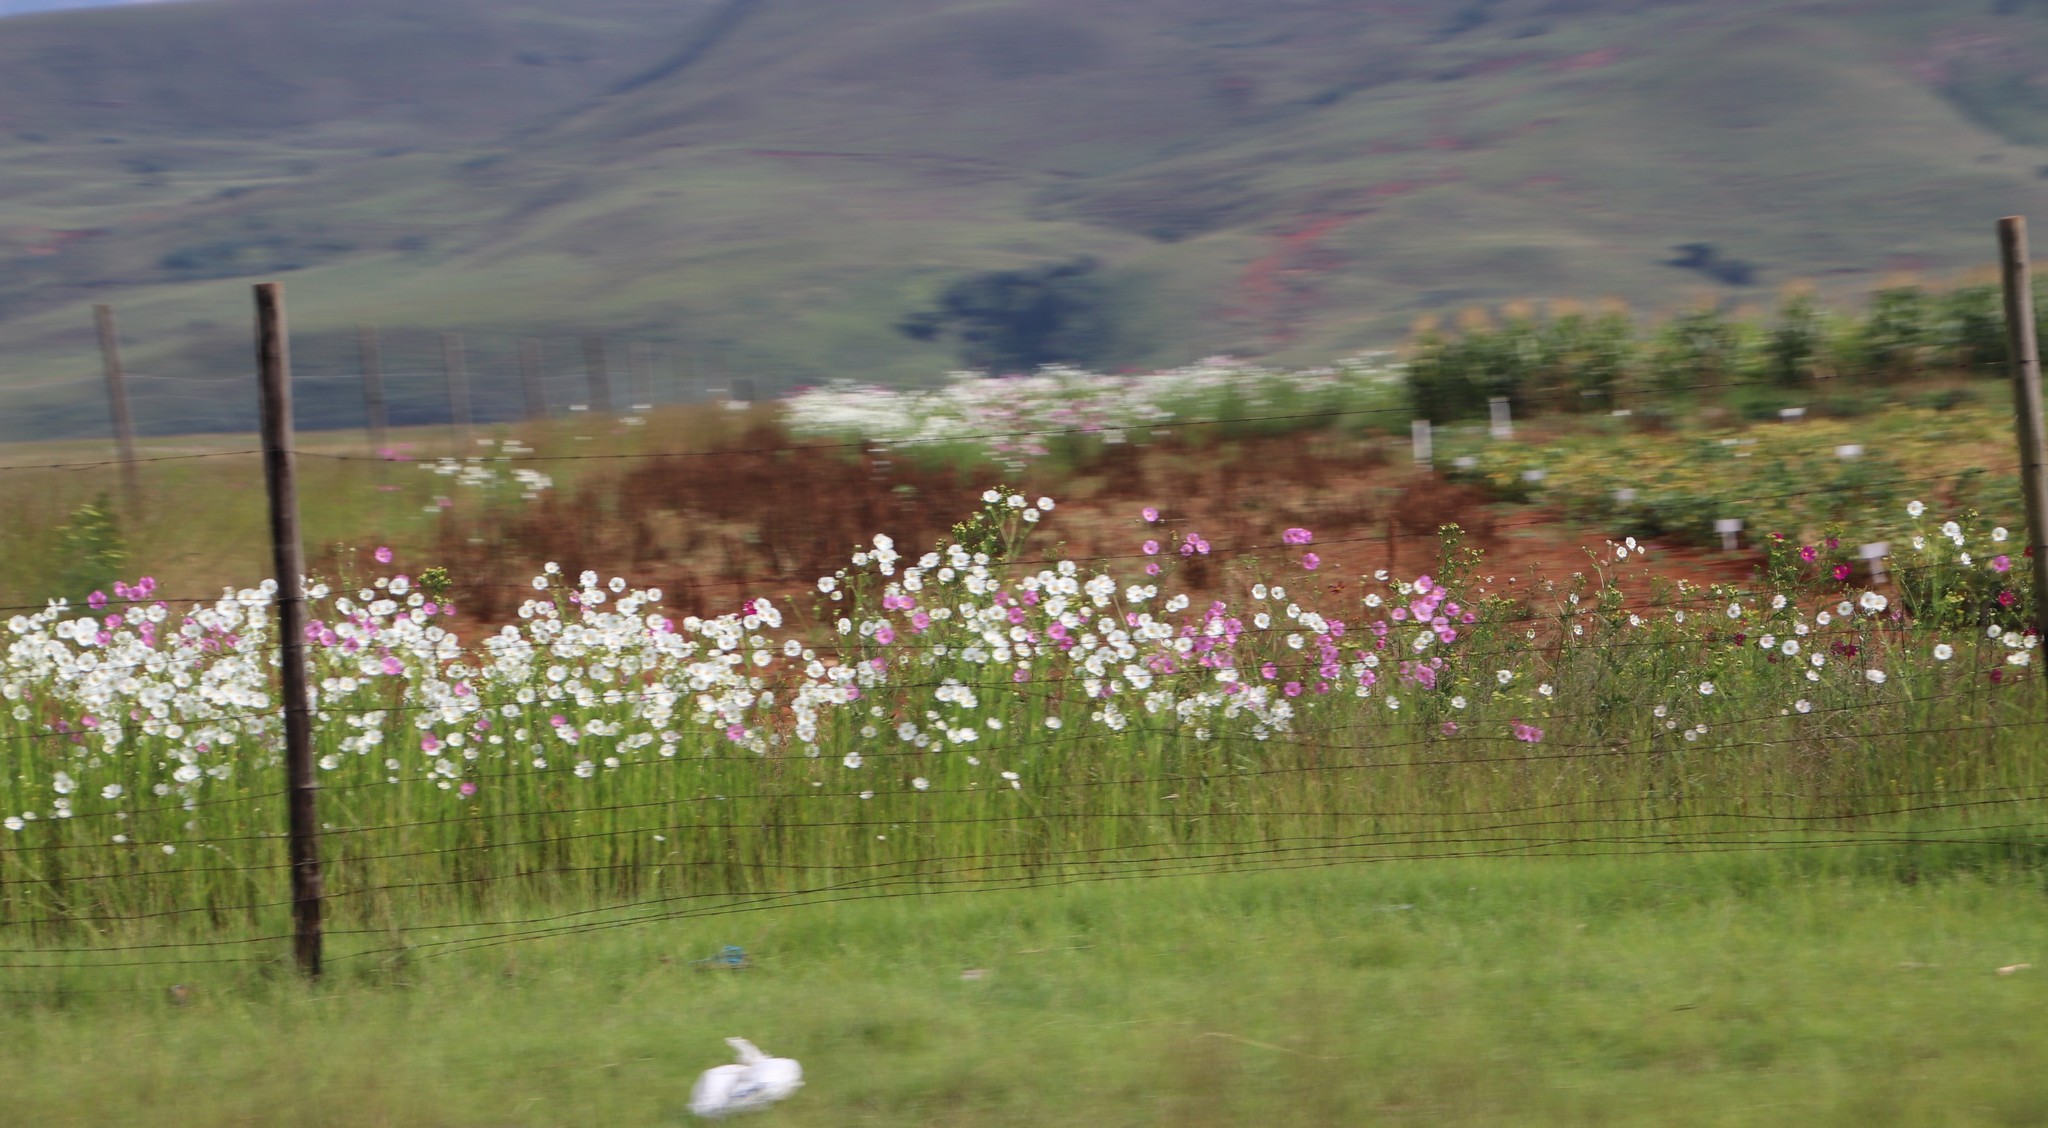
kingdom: Plantae
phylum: Tracheophyta
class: Magnoliopsida
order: Asterales
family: Asteraceae
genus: Cosmos
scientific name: Cosmos bipinnatus
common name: Garden cosmos
